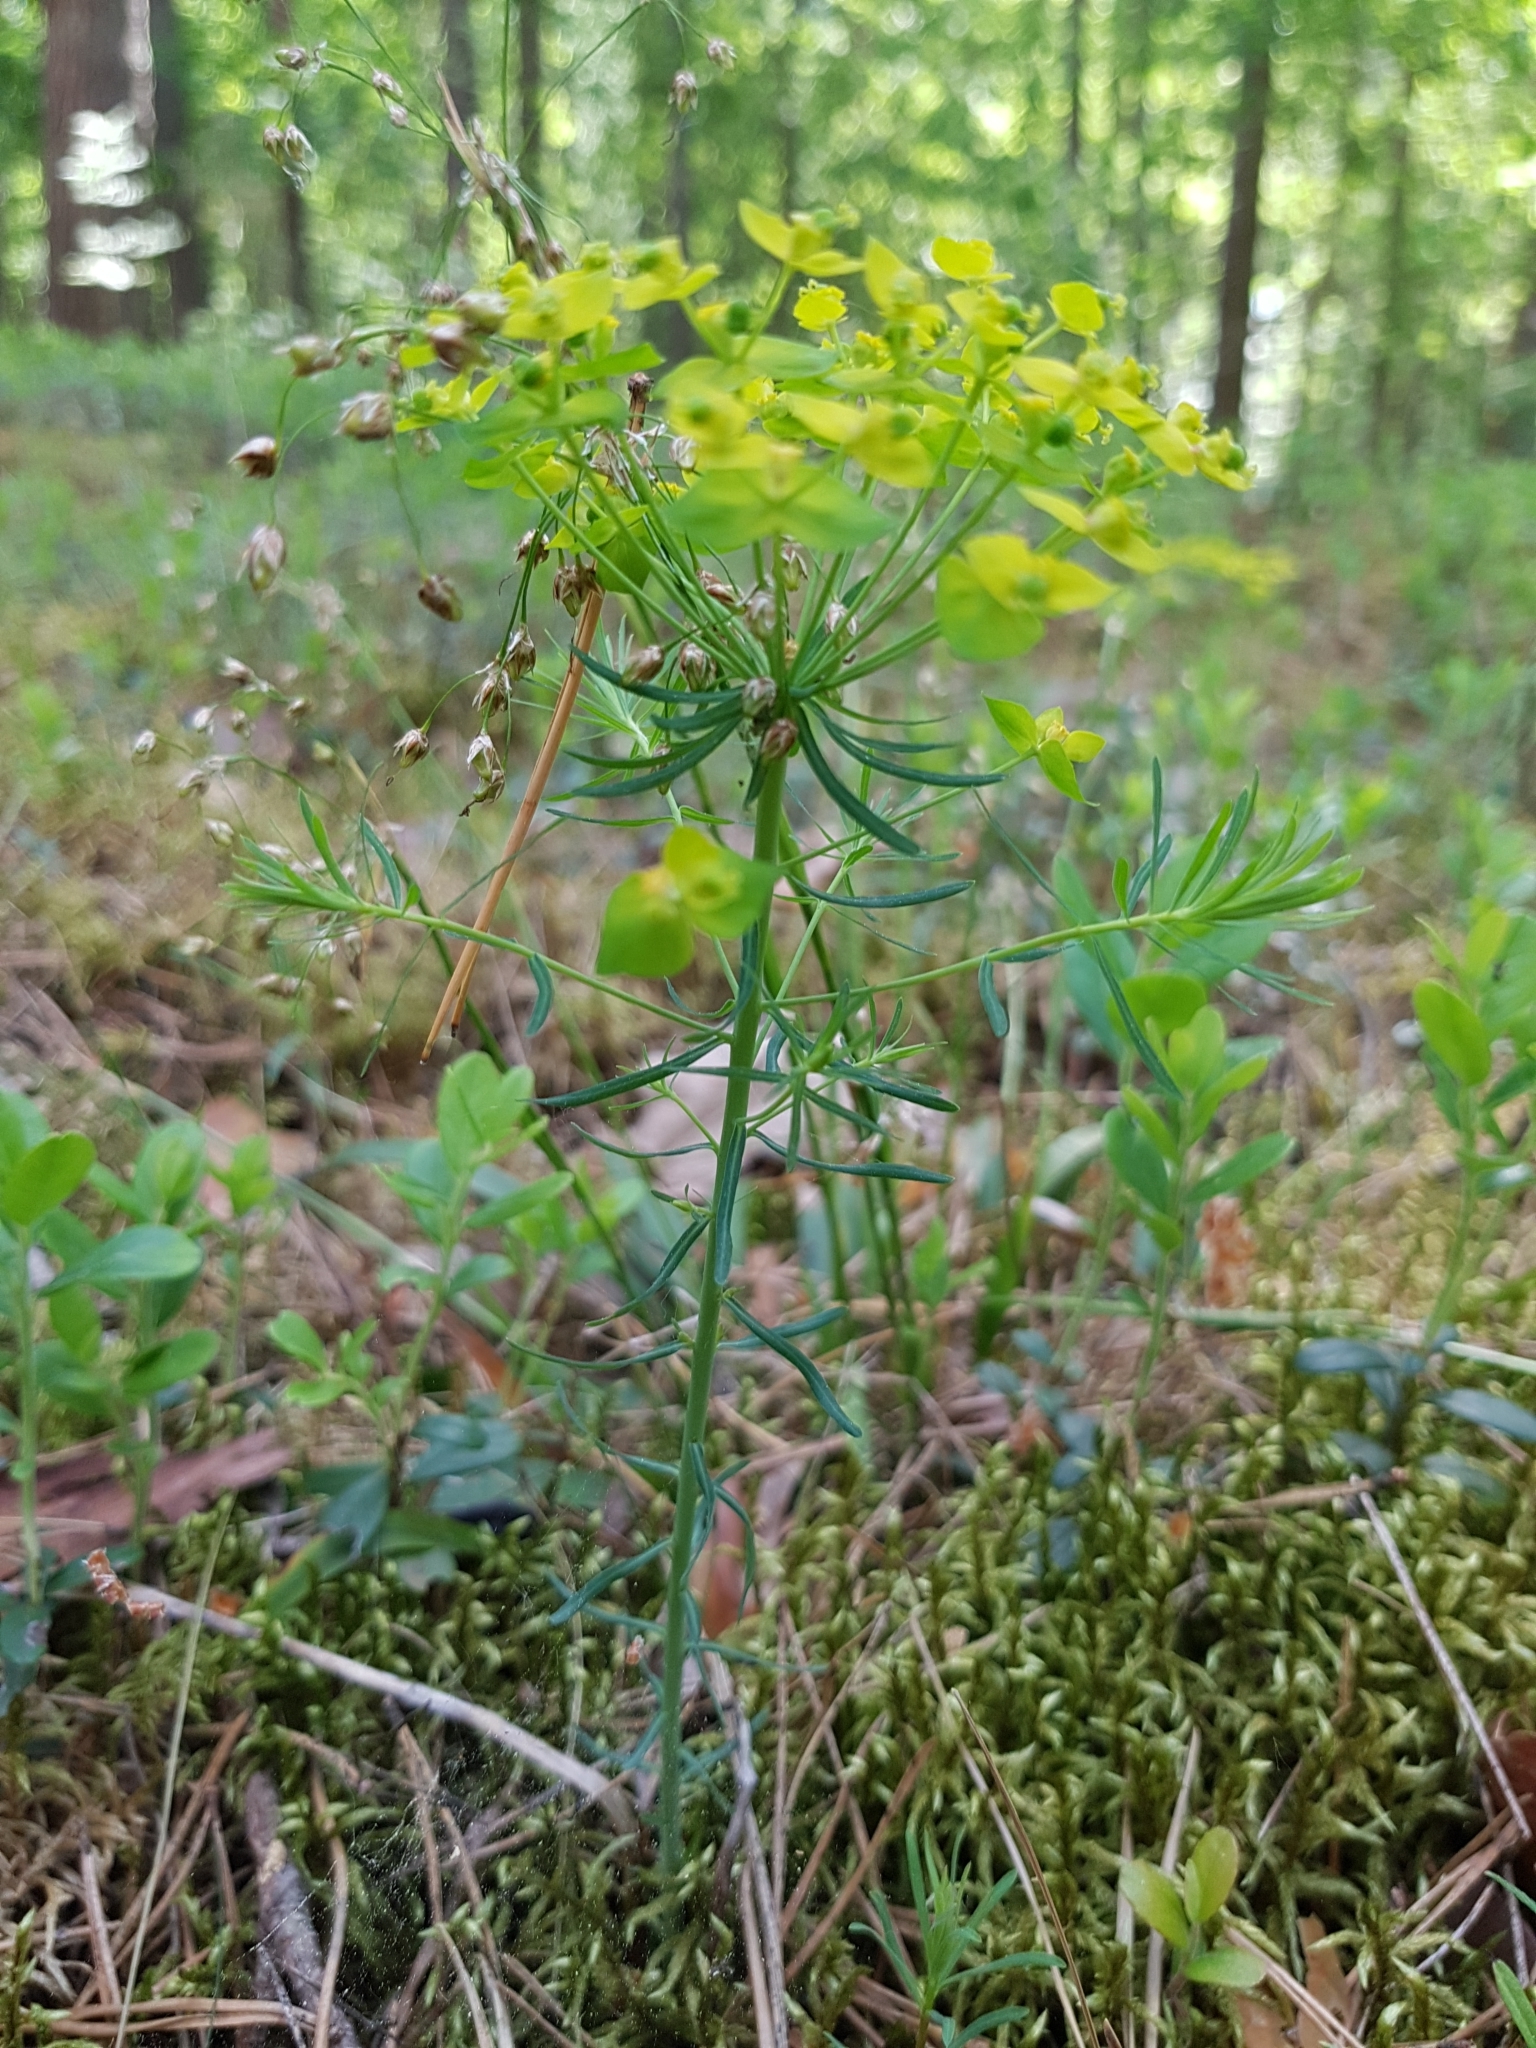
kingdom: Plantae
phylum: Tracheophyta
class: Magnoliopsida
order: Malpighiales
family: Euphorbiaceae
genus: Euphorbia
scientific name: Euphorbia cyparissias
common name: Cypress spurge
